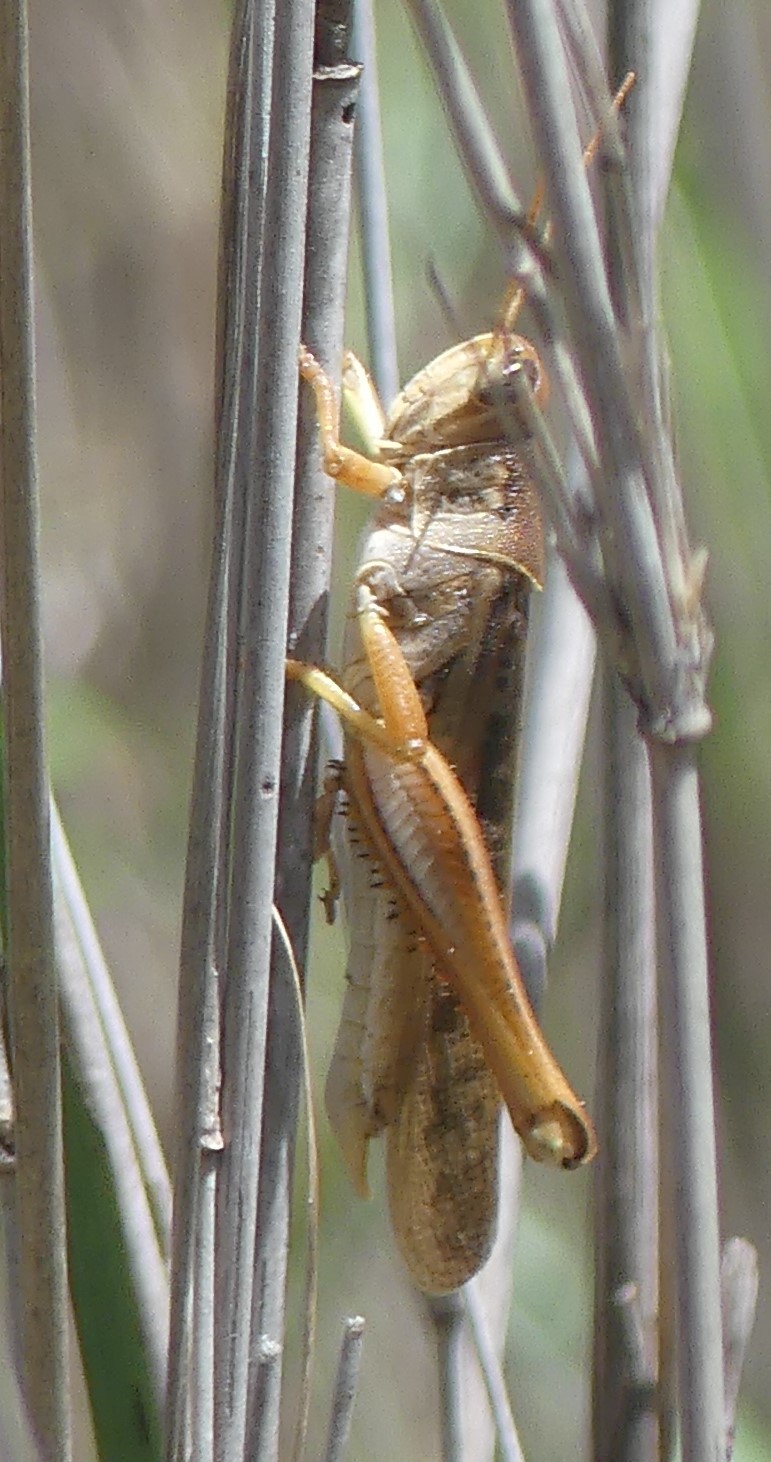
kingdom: Animalia
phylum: Arthropoda
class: Insecta
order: Orthoptera
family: Acrididae
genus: Austracris
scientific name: Austracris proxima
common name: Confusing spur-throated locust
